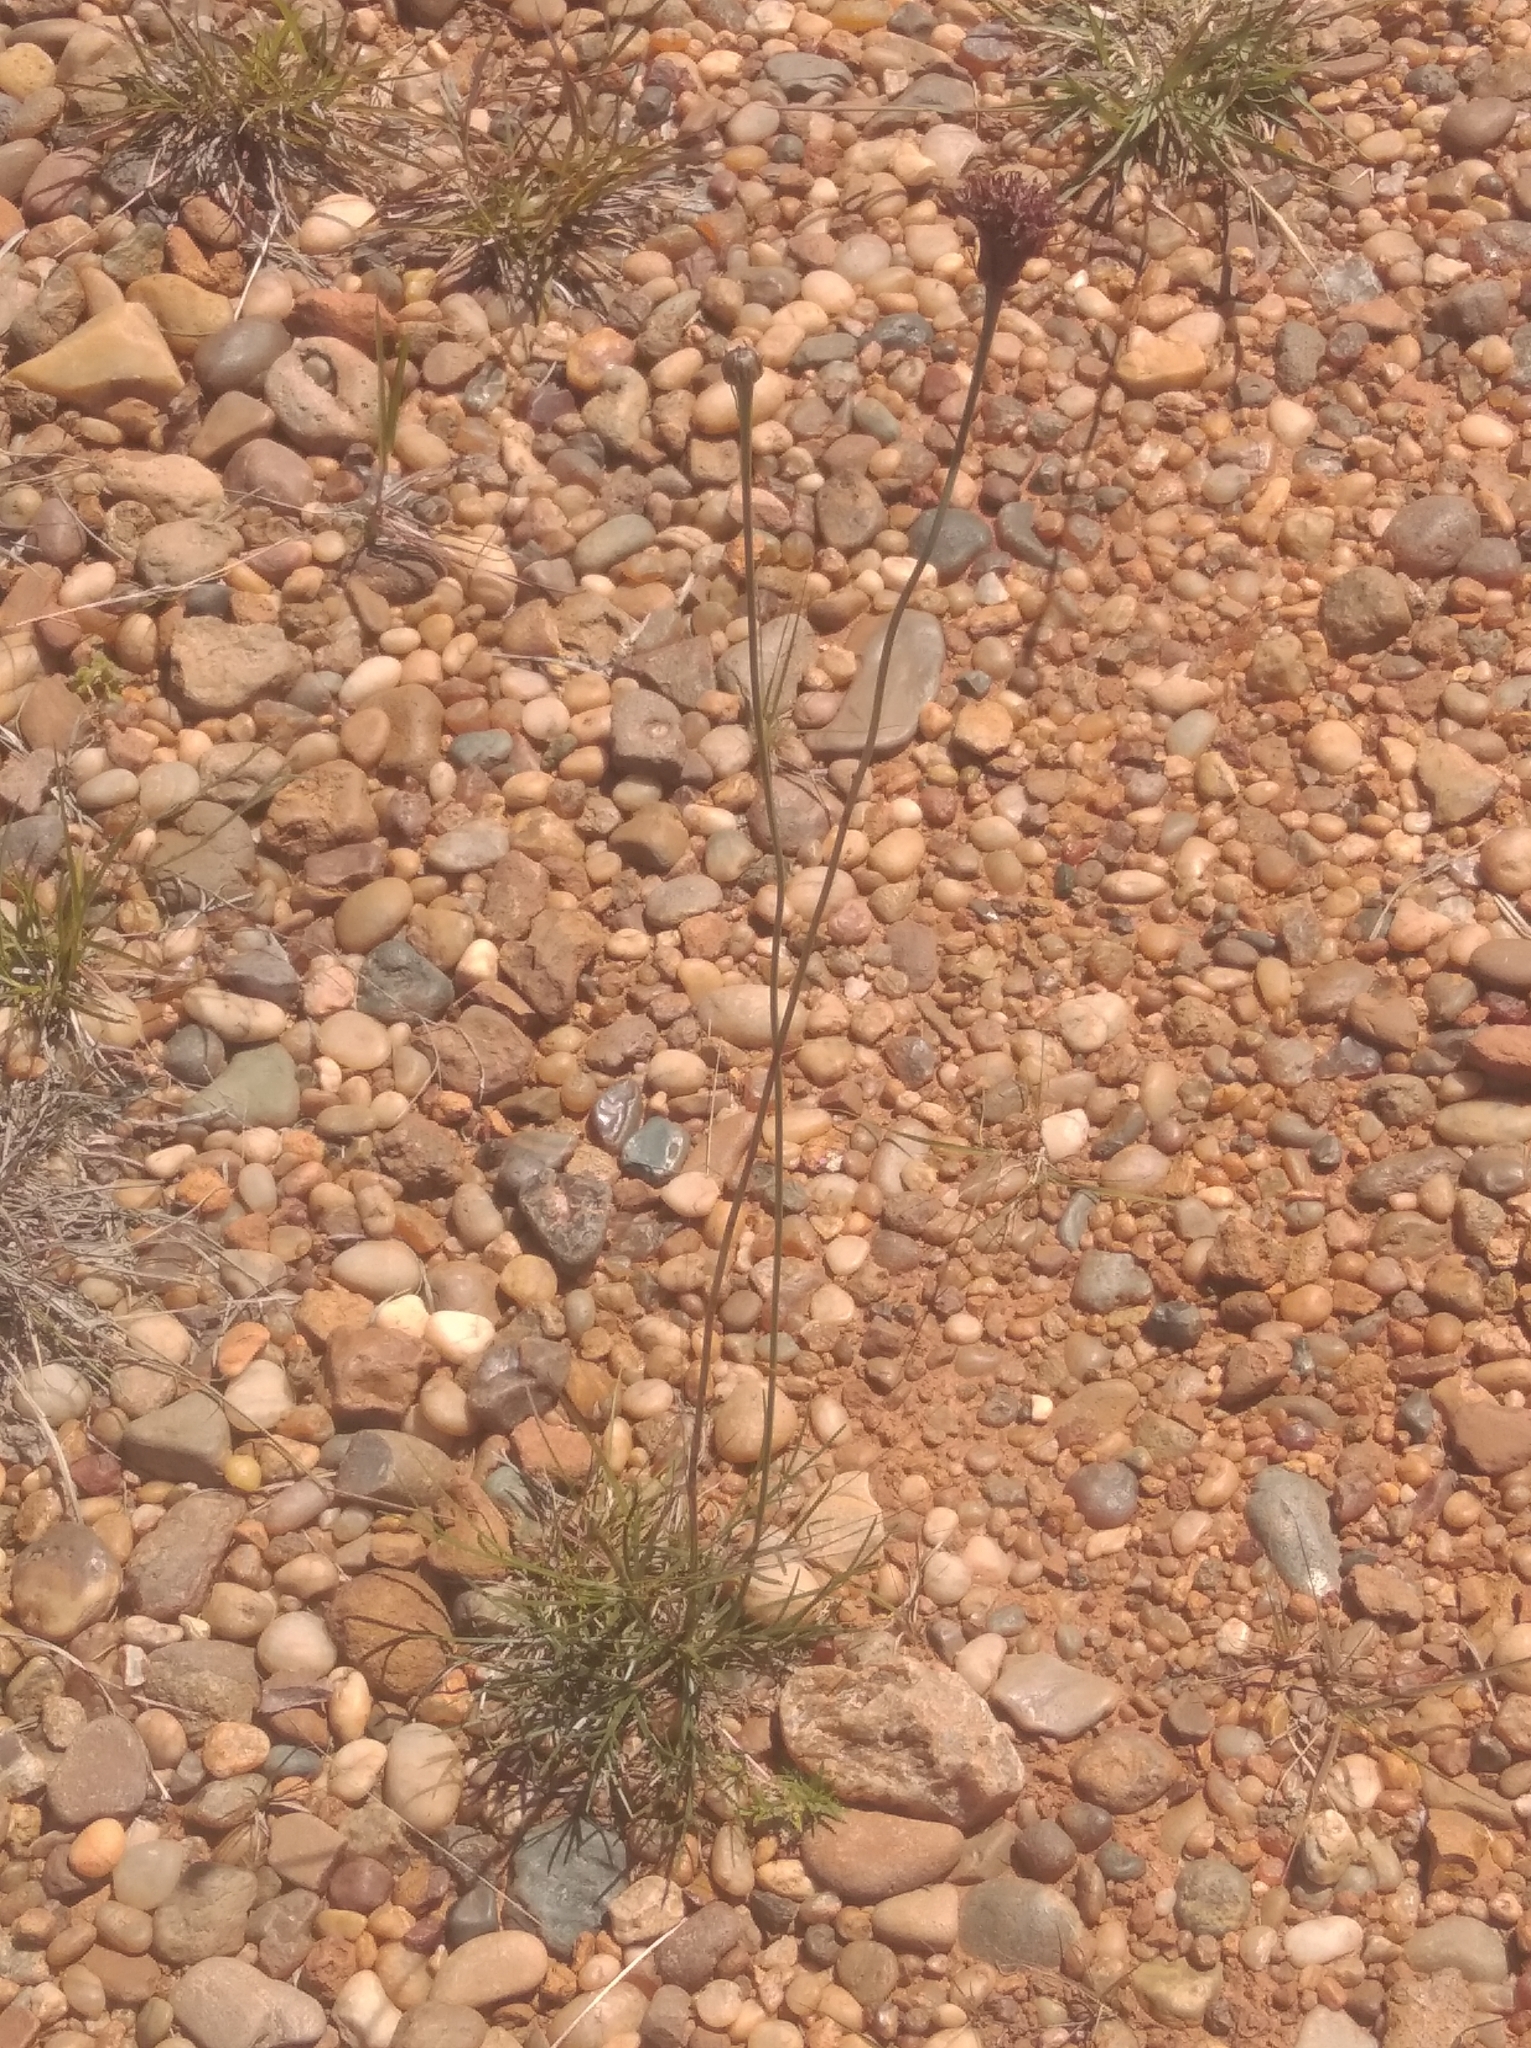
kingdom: Plantae
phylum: Tracheophyta
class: Magnoliopsida
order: Asterales
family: Asteraceae
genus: Porophyllum
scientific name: Porophyllum linifolium
